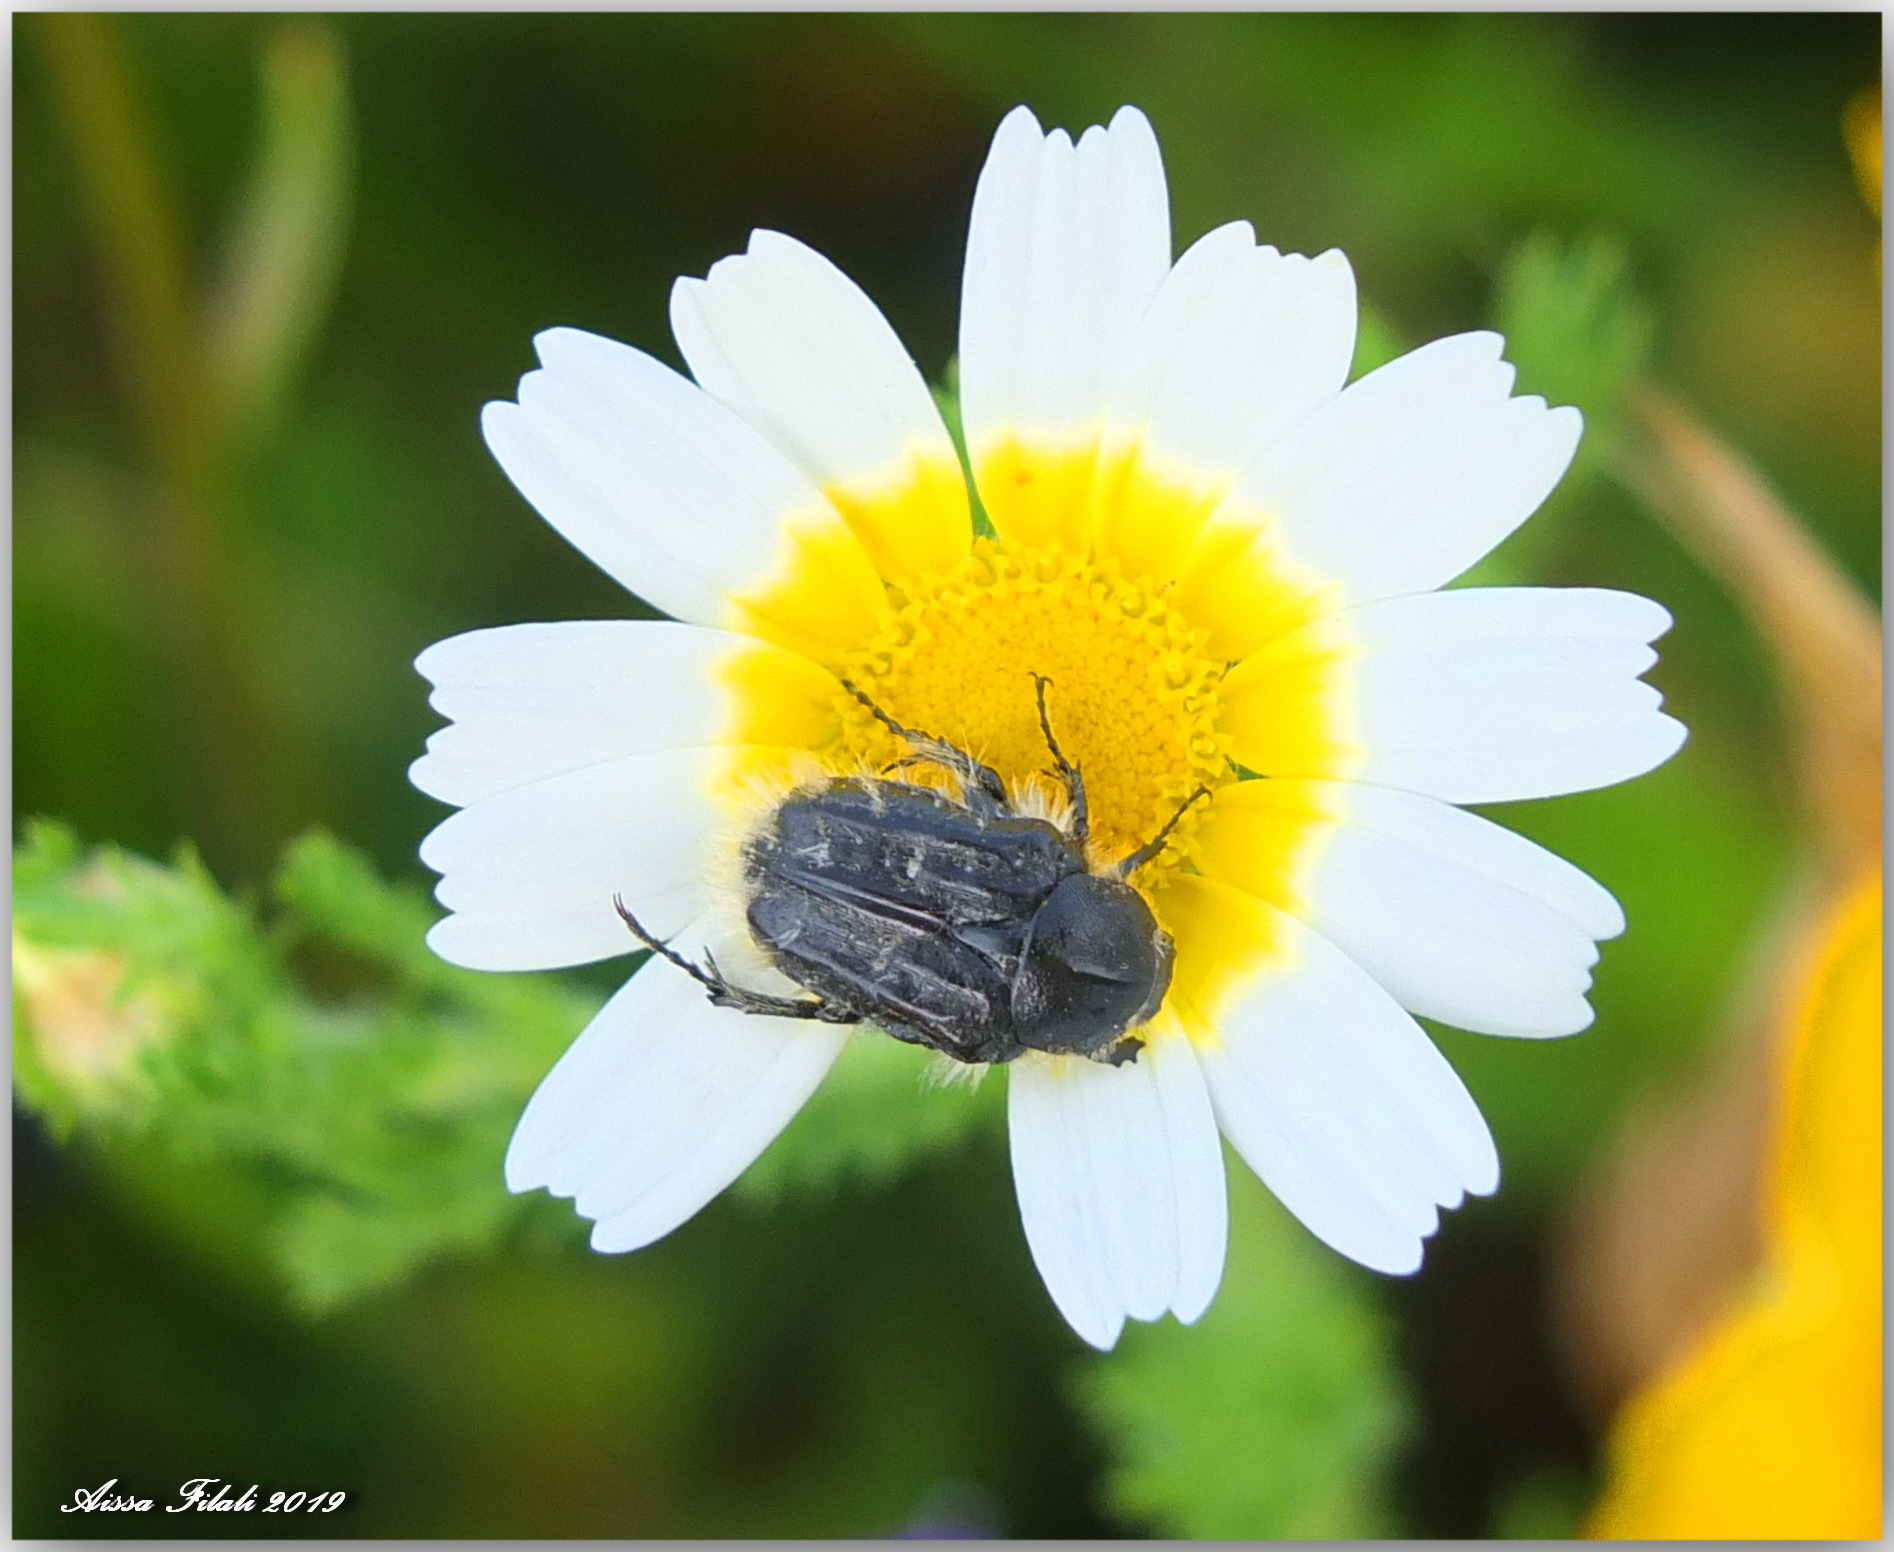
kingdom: Animalia
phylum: Arthropoda
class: Insecta
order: Coleoptera
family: Scarabaeidae
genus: Tropinota
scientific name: Tropinota squalida
